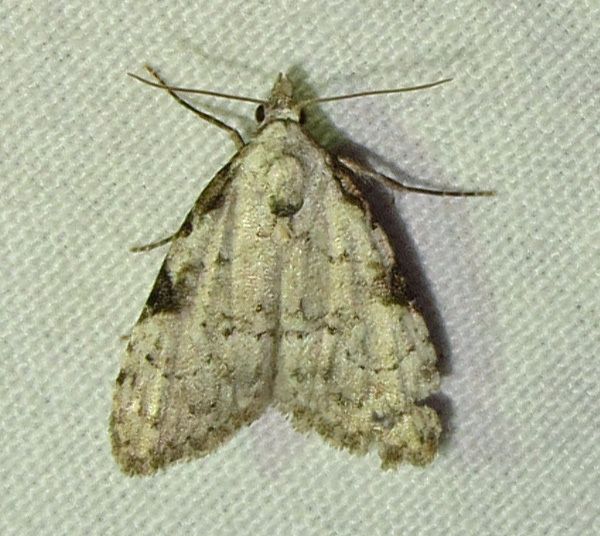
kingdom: Animalia
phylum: Arthropoda
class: Insecta
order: Lepidoptera
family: Nolidae
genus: Meganola
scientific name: Meganola minuscula
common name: Confused meganola moth
